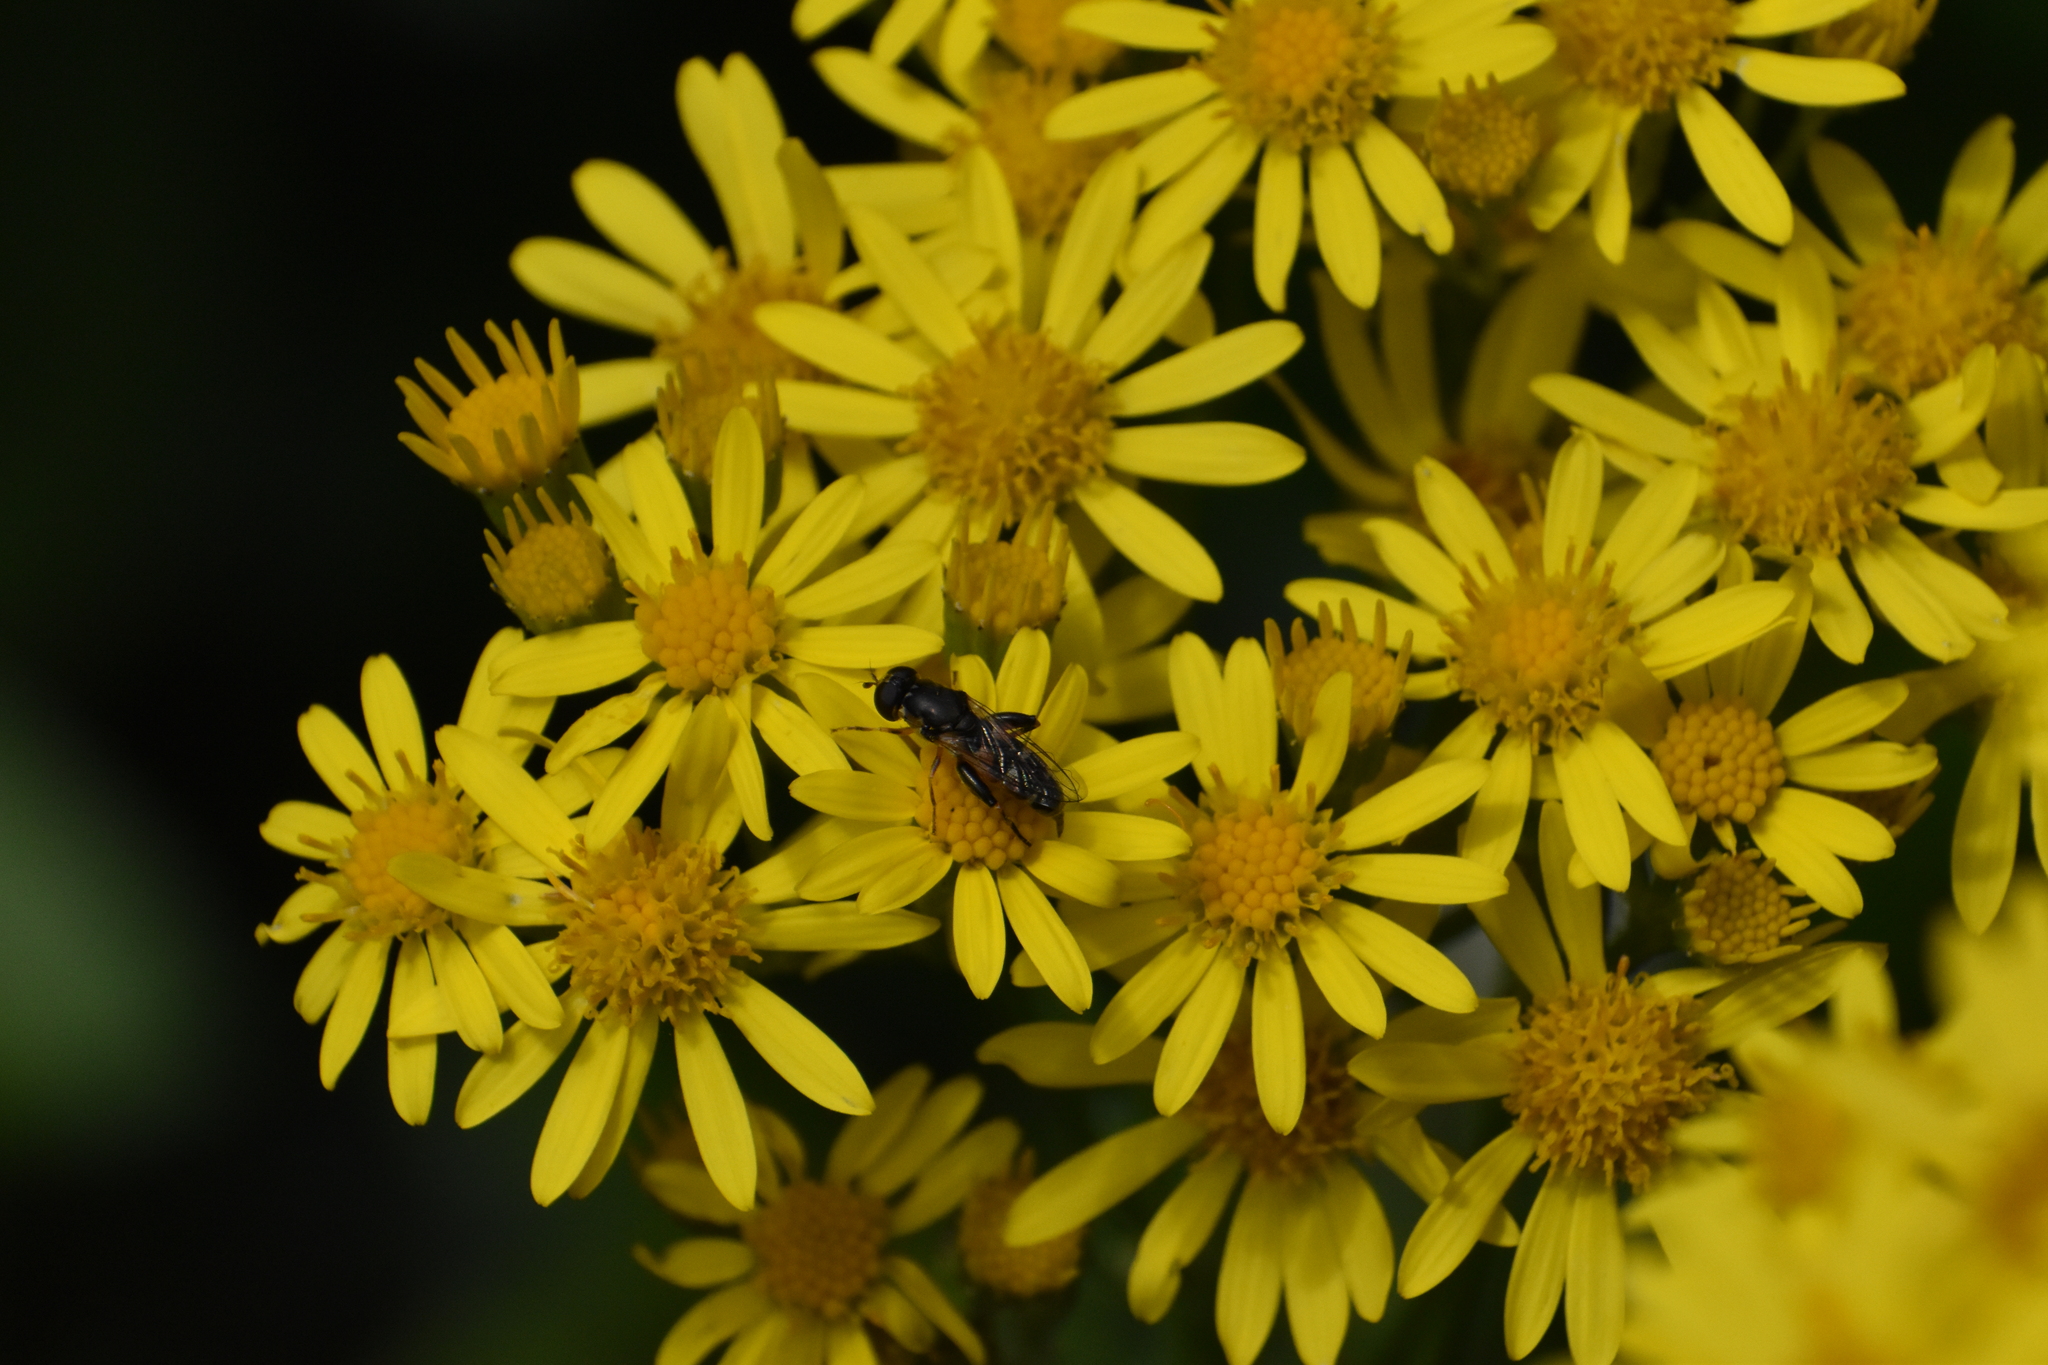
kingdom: Animalia
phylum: Arthropoda
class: Insecta
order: Diptera
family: Syrphidae
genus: Syritta
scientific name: Syritta pipiens
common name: Hover fly
